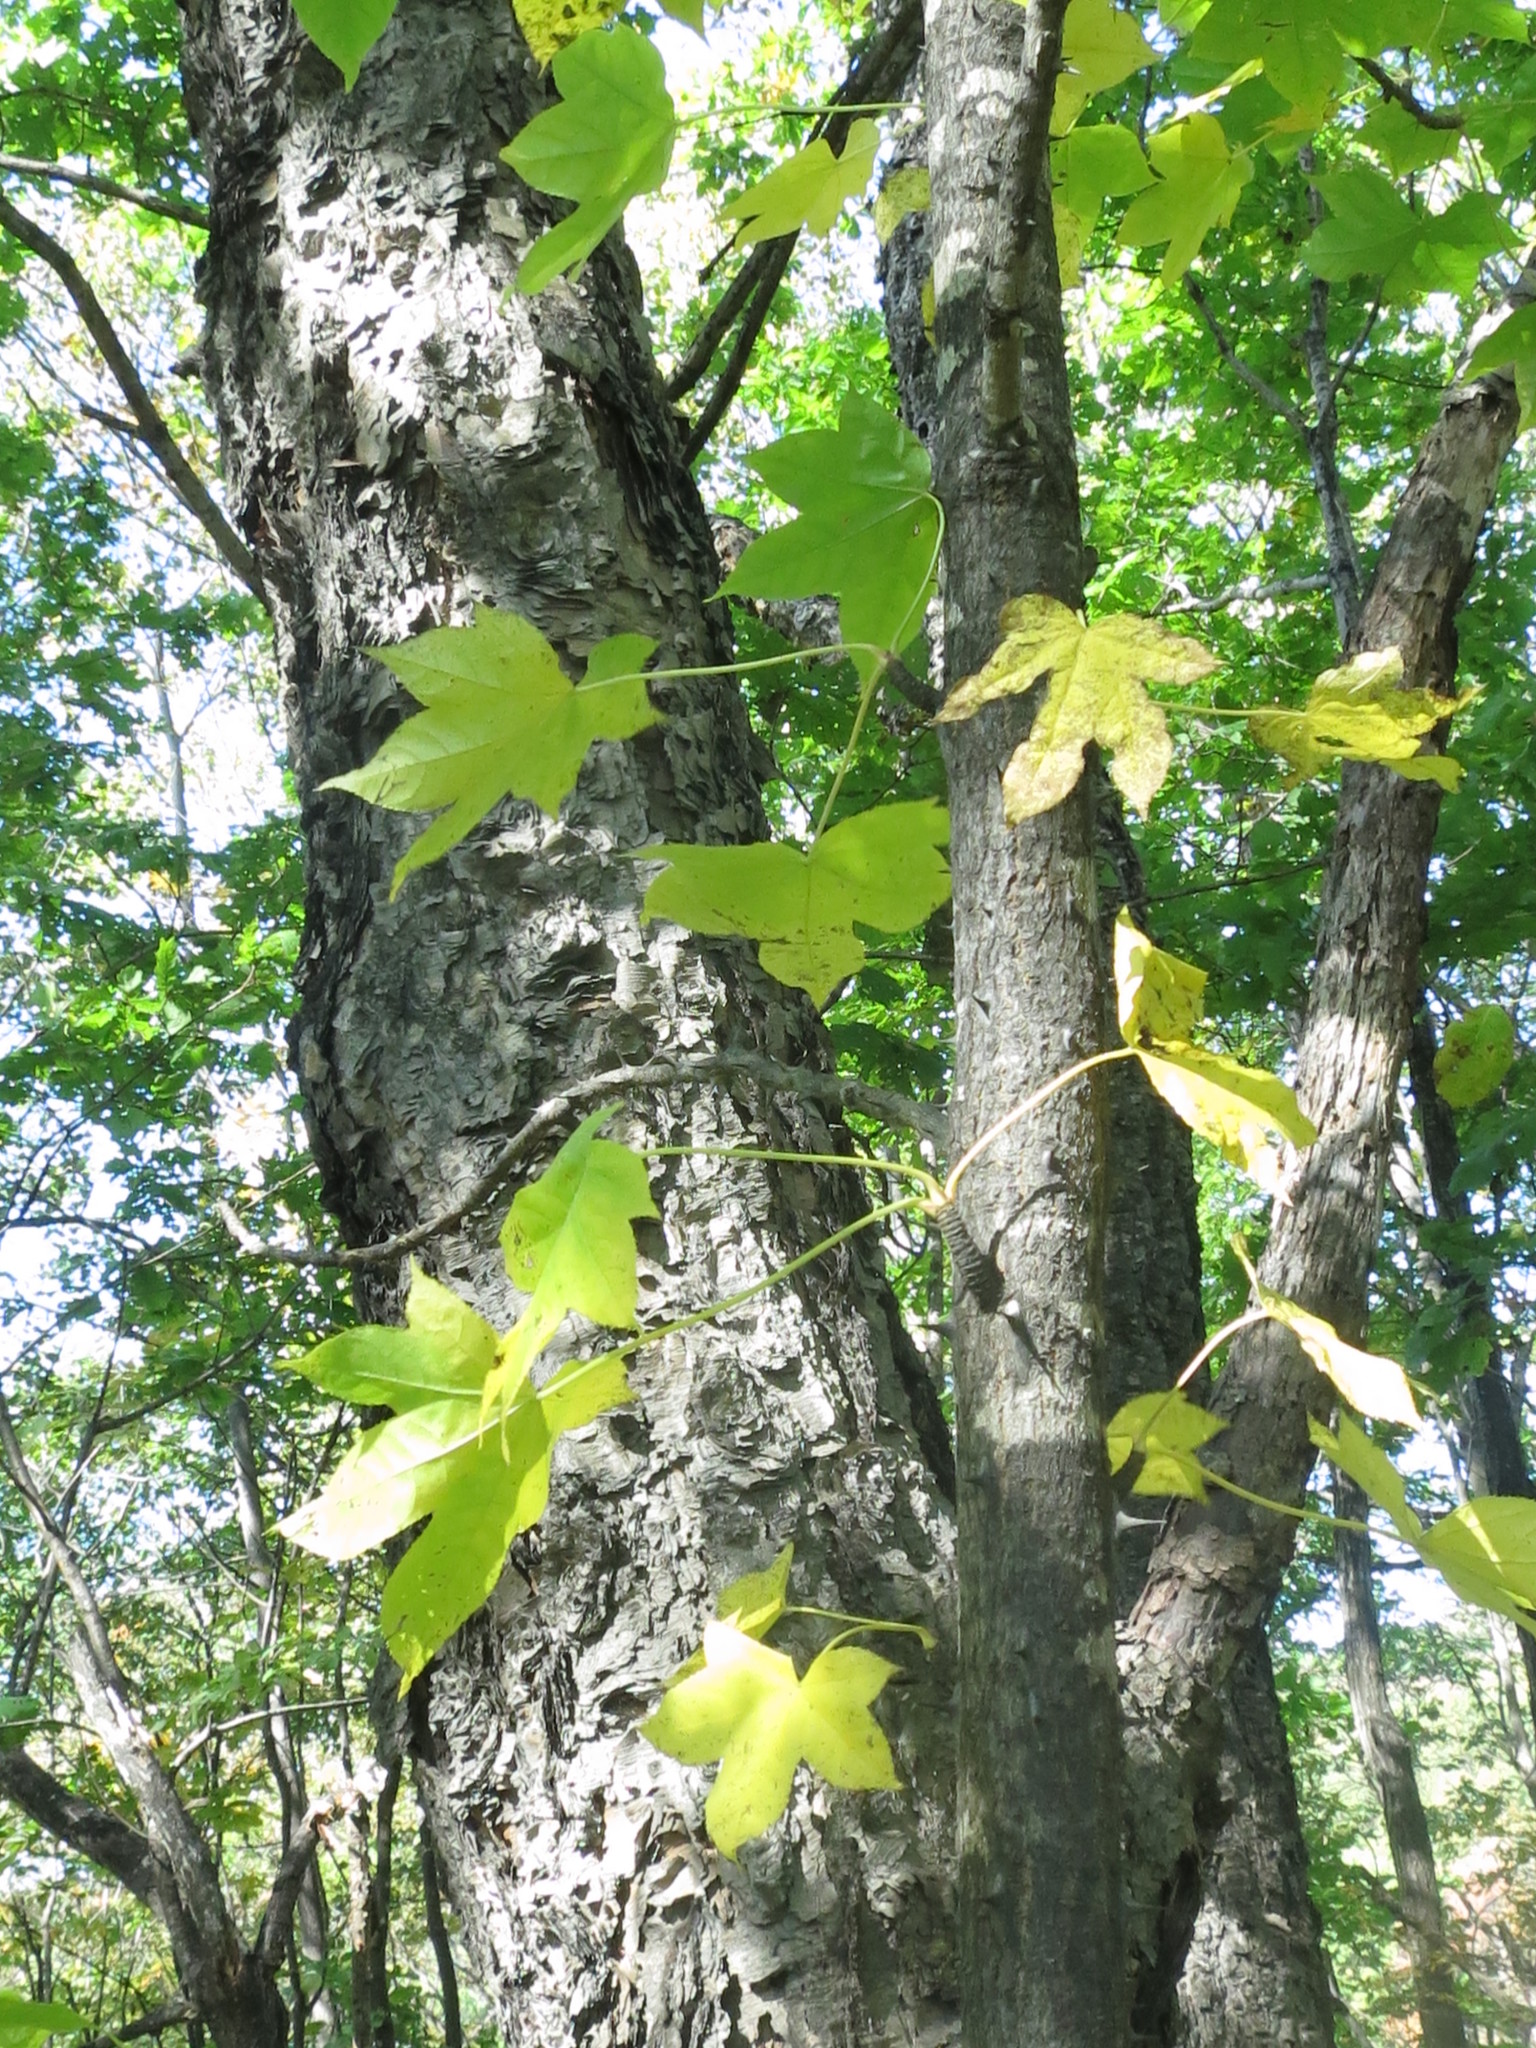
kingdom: Plantae
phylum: Tracheophyta
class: Magnoliopsida
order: Apiales
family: Araliaceae
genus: Kalopanax
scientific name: Kalopanax septemlobus
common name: Castor aralia
